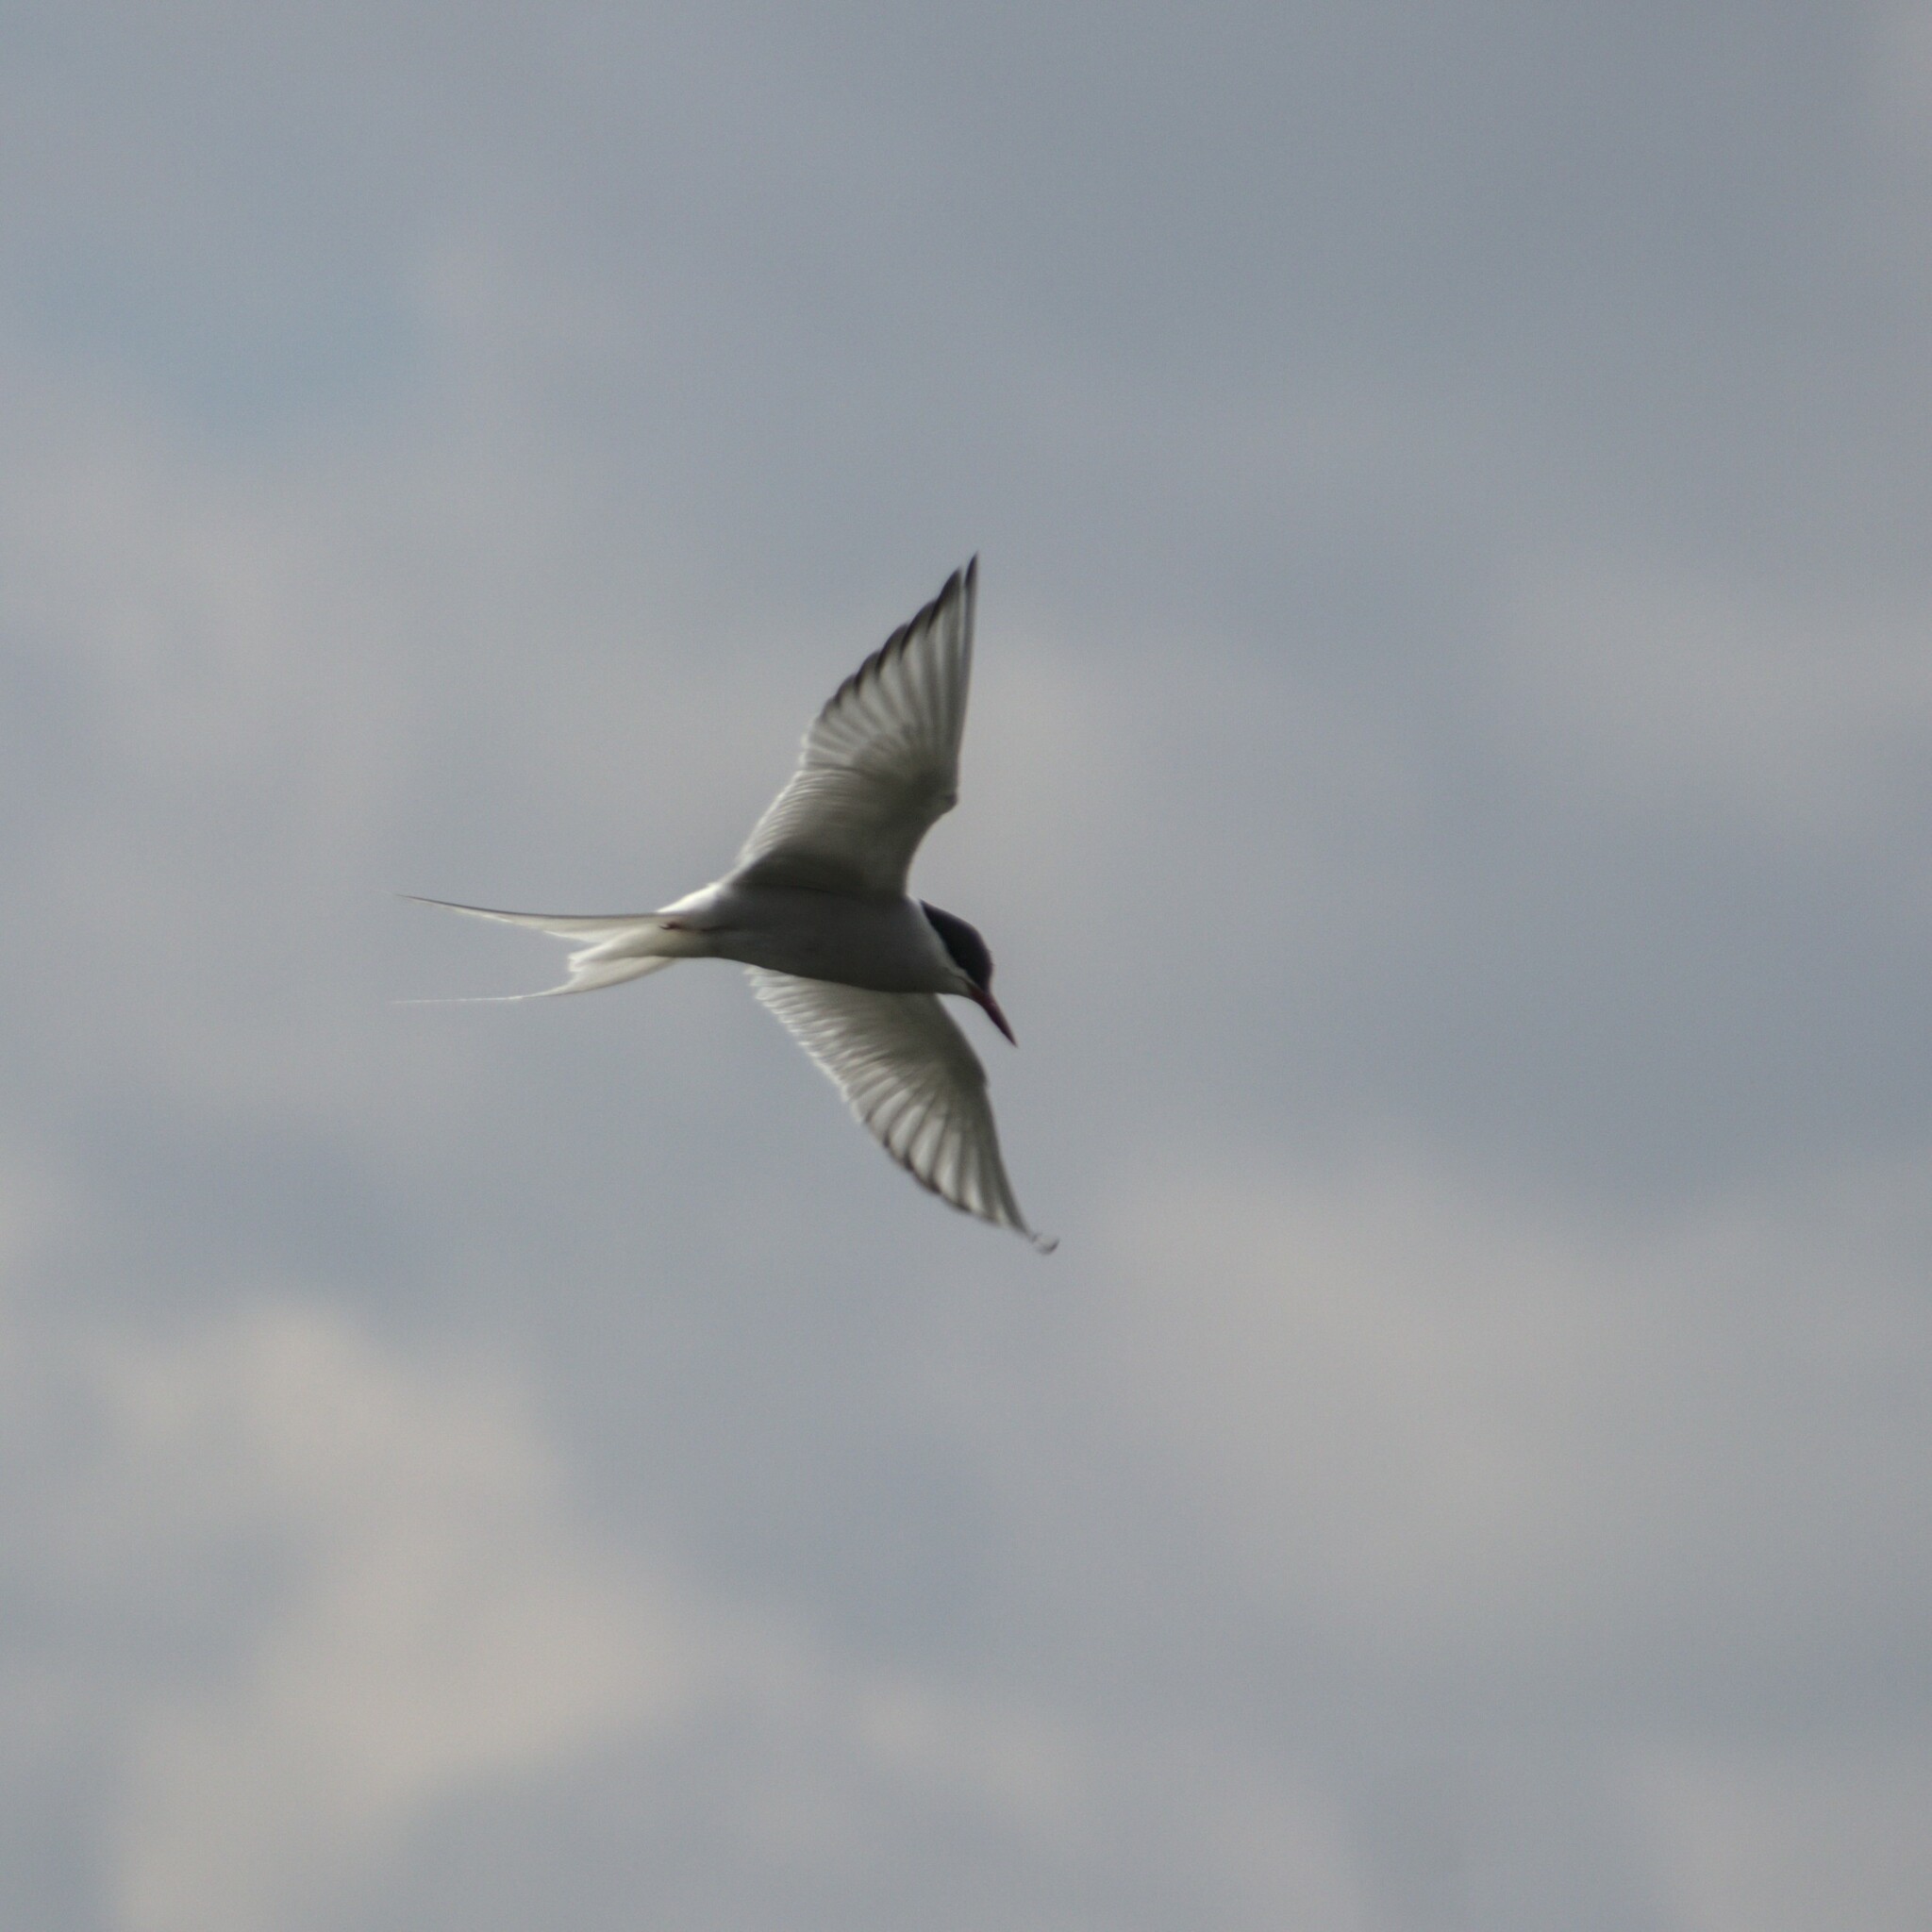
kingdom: Animalia
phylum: Chordata
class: Aves
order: Charadriiformes
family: Laridae
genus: Sterna
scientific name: Sterna hirundo
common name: Common tern
